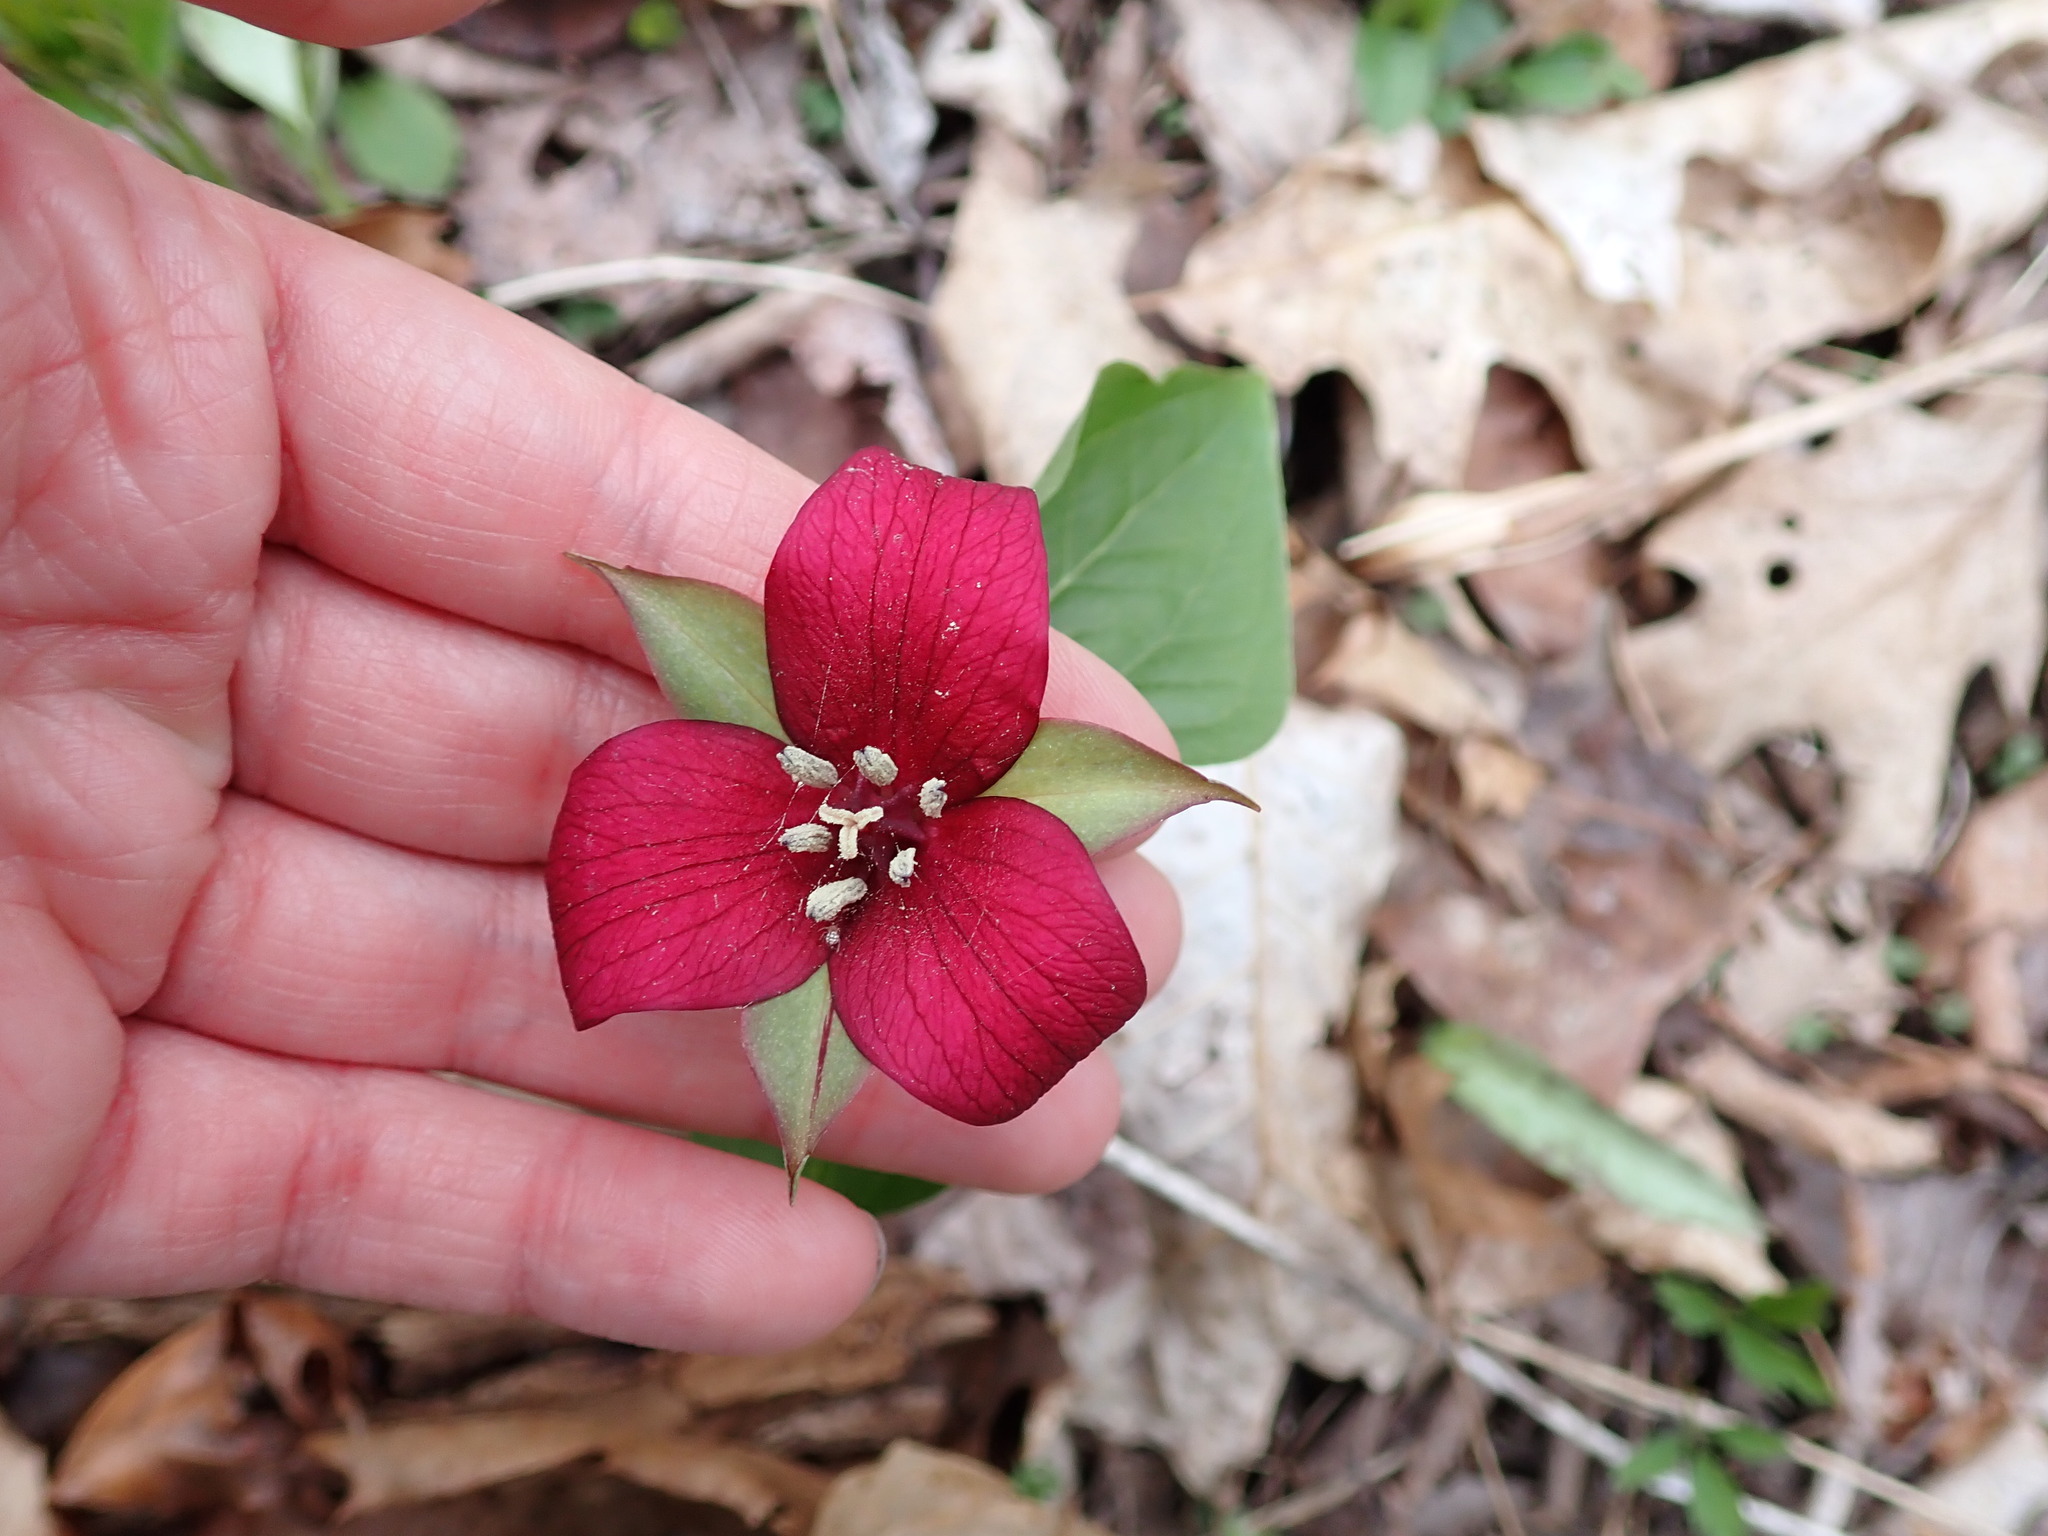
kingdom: Plantae
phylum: Tracheophyta
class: Liliopsida
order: Liliales
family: Melanthiaceae
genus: Trillium
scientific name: Trillium erectum
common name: Purple trillium
